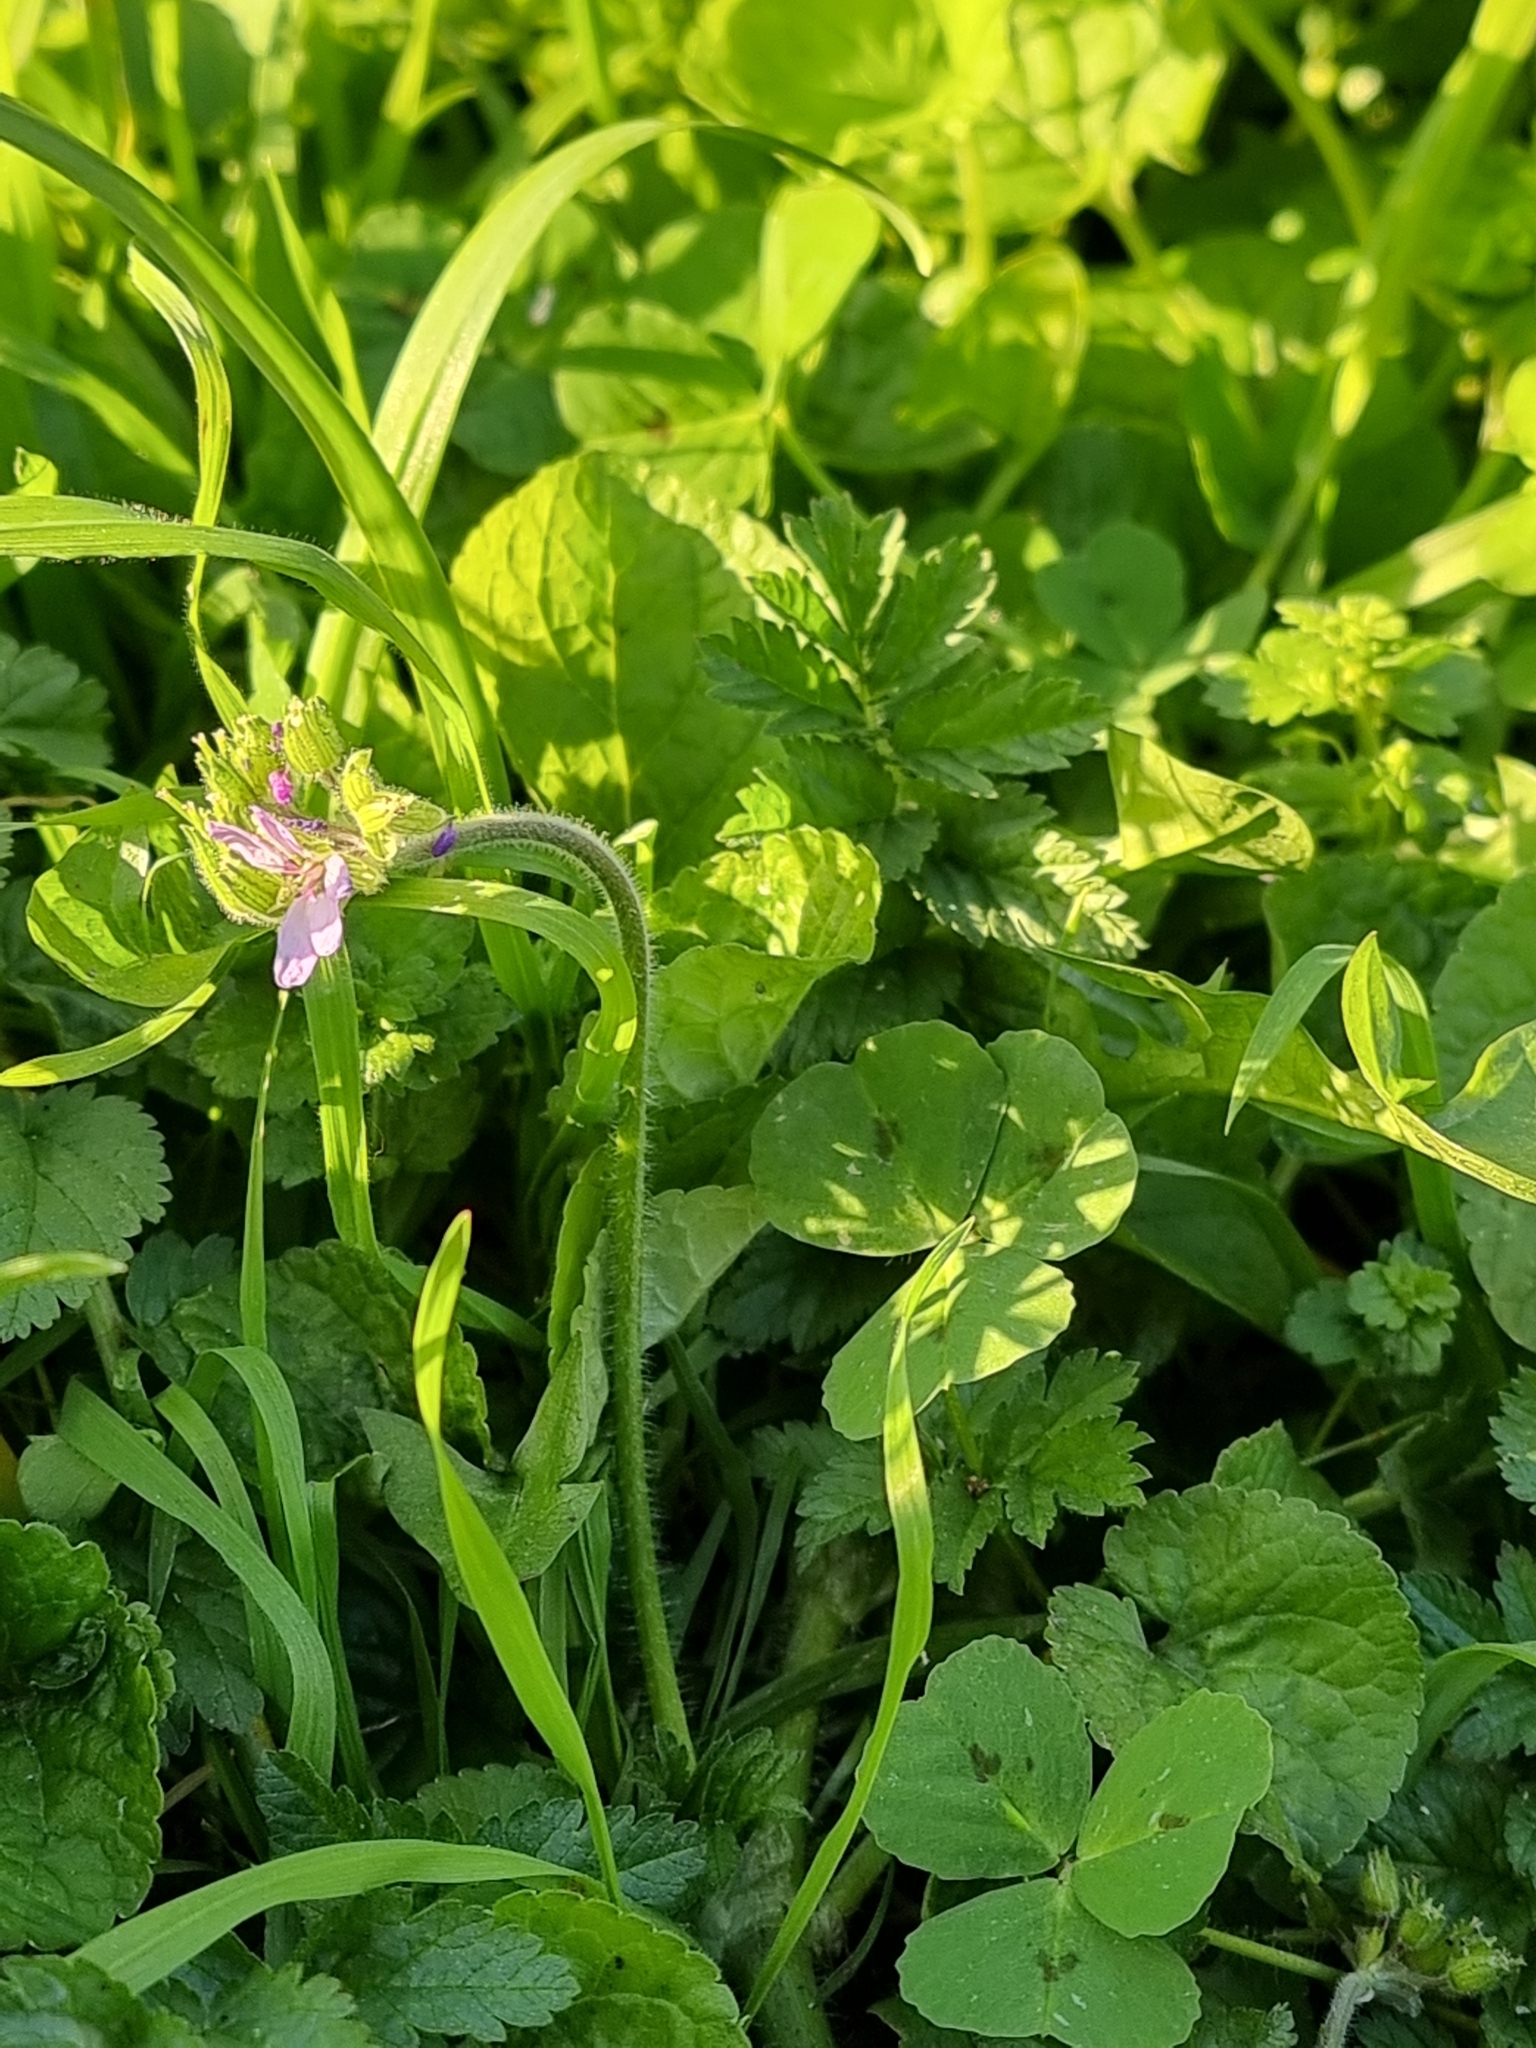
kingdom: Plantae
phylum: Tracheophyta
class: Magnoliopsida
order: Geraniales
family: Geraniaceae
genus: Erodium
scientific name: Erodium moschatum
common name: Musk stork's-bill
